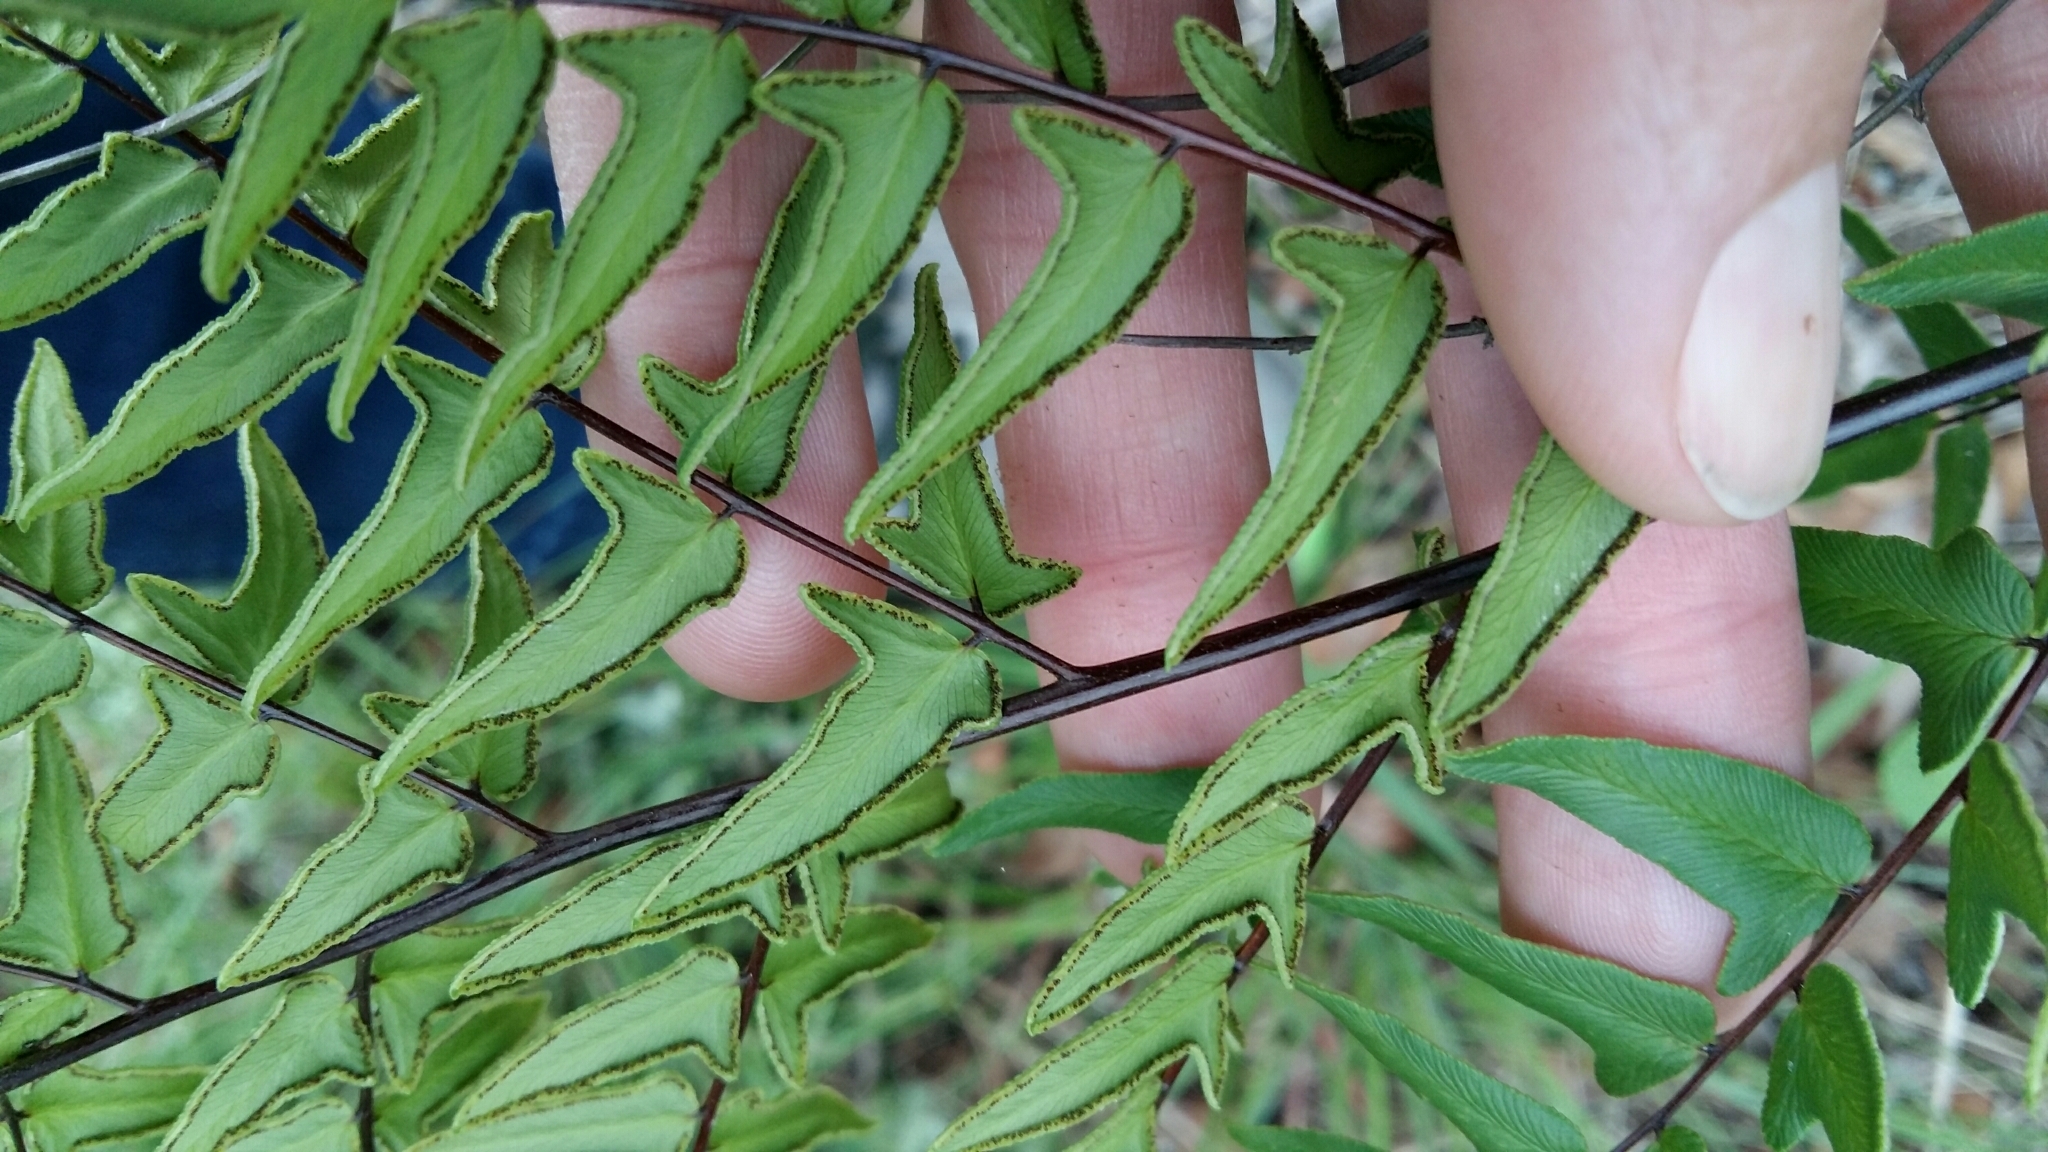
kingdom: Plantae
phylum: Tracheophyta
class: Polypodiopsida
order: Polypodiales
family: Pteridaceae
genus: Cheilanthes
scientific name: Cheilanthes viridis
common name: Green cliffbrake
